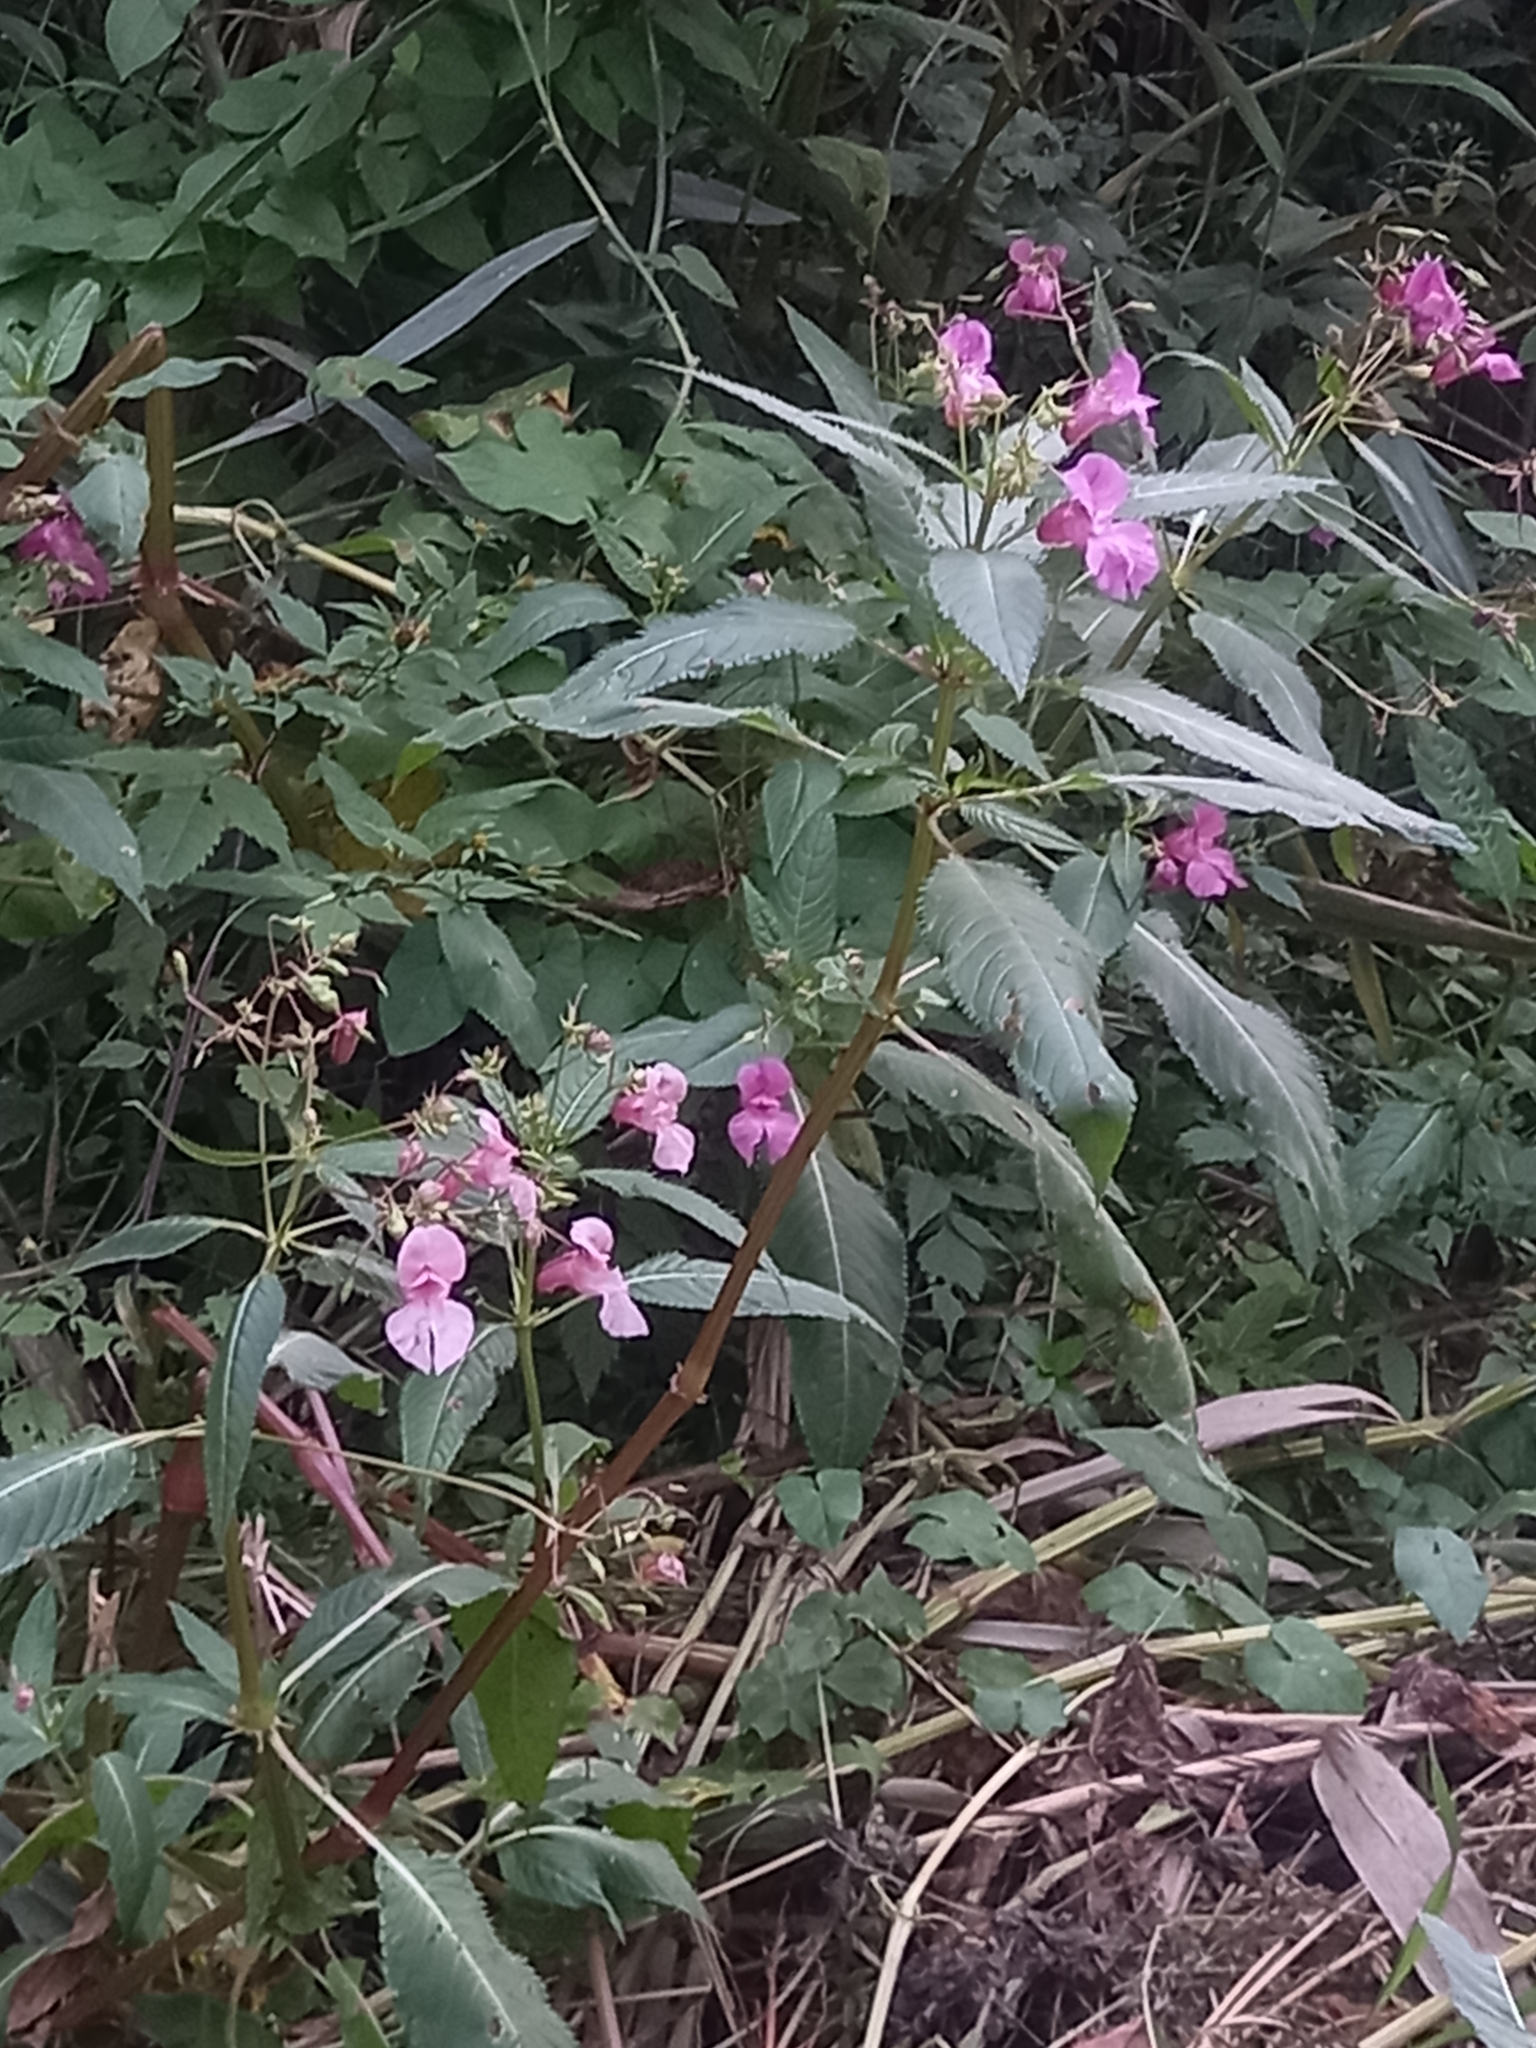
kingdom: Plantae
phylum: Tracheophyta
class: Magnoliopsida
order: Ericales
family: Balsaminaceae
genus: Impatiens
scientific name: Impatiens glandulifera
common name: Himalayan balsam
